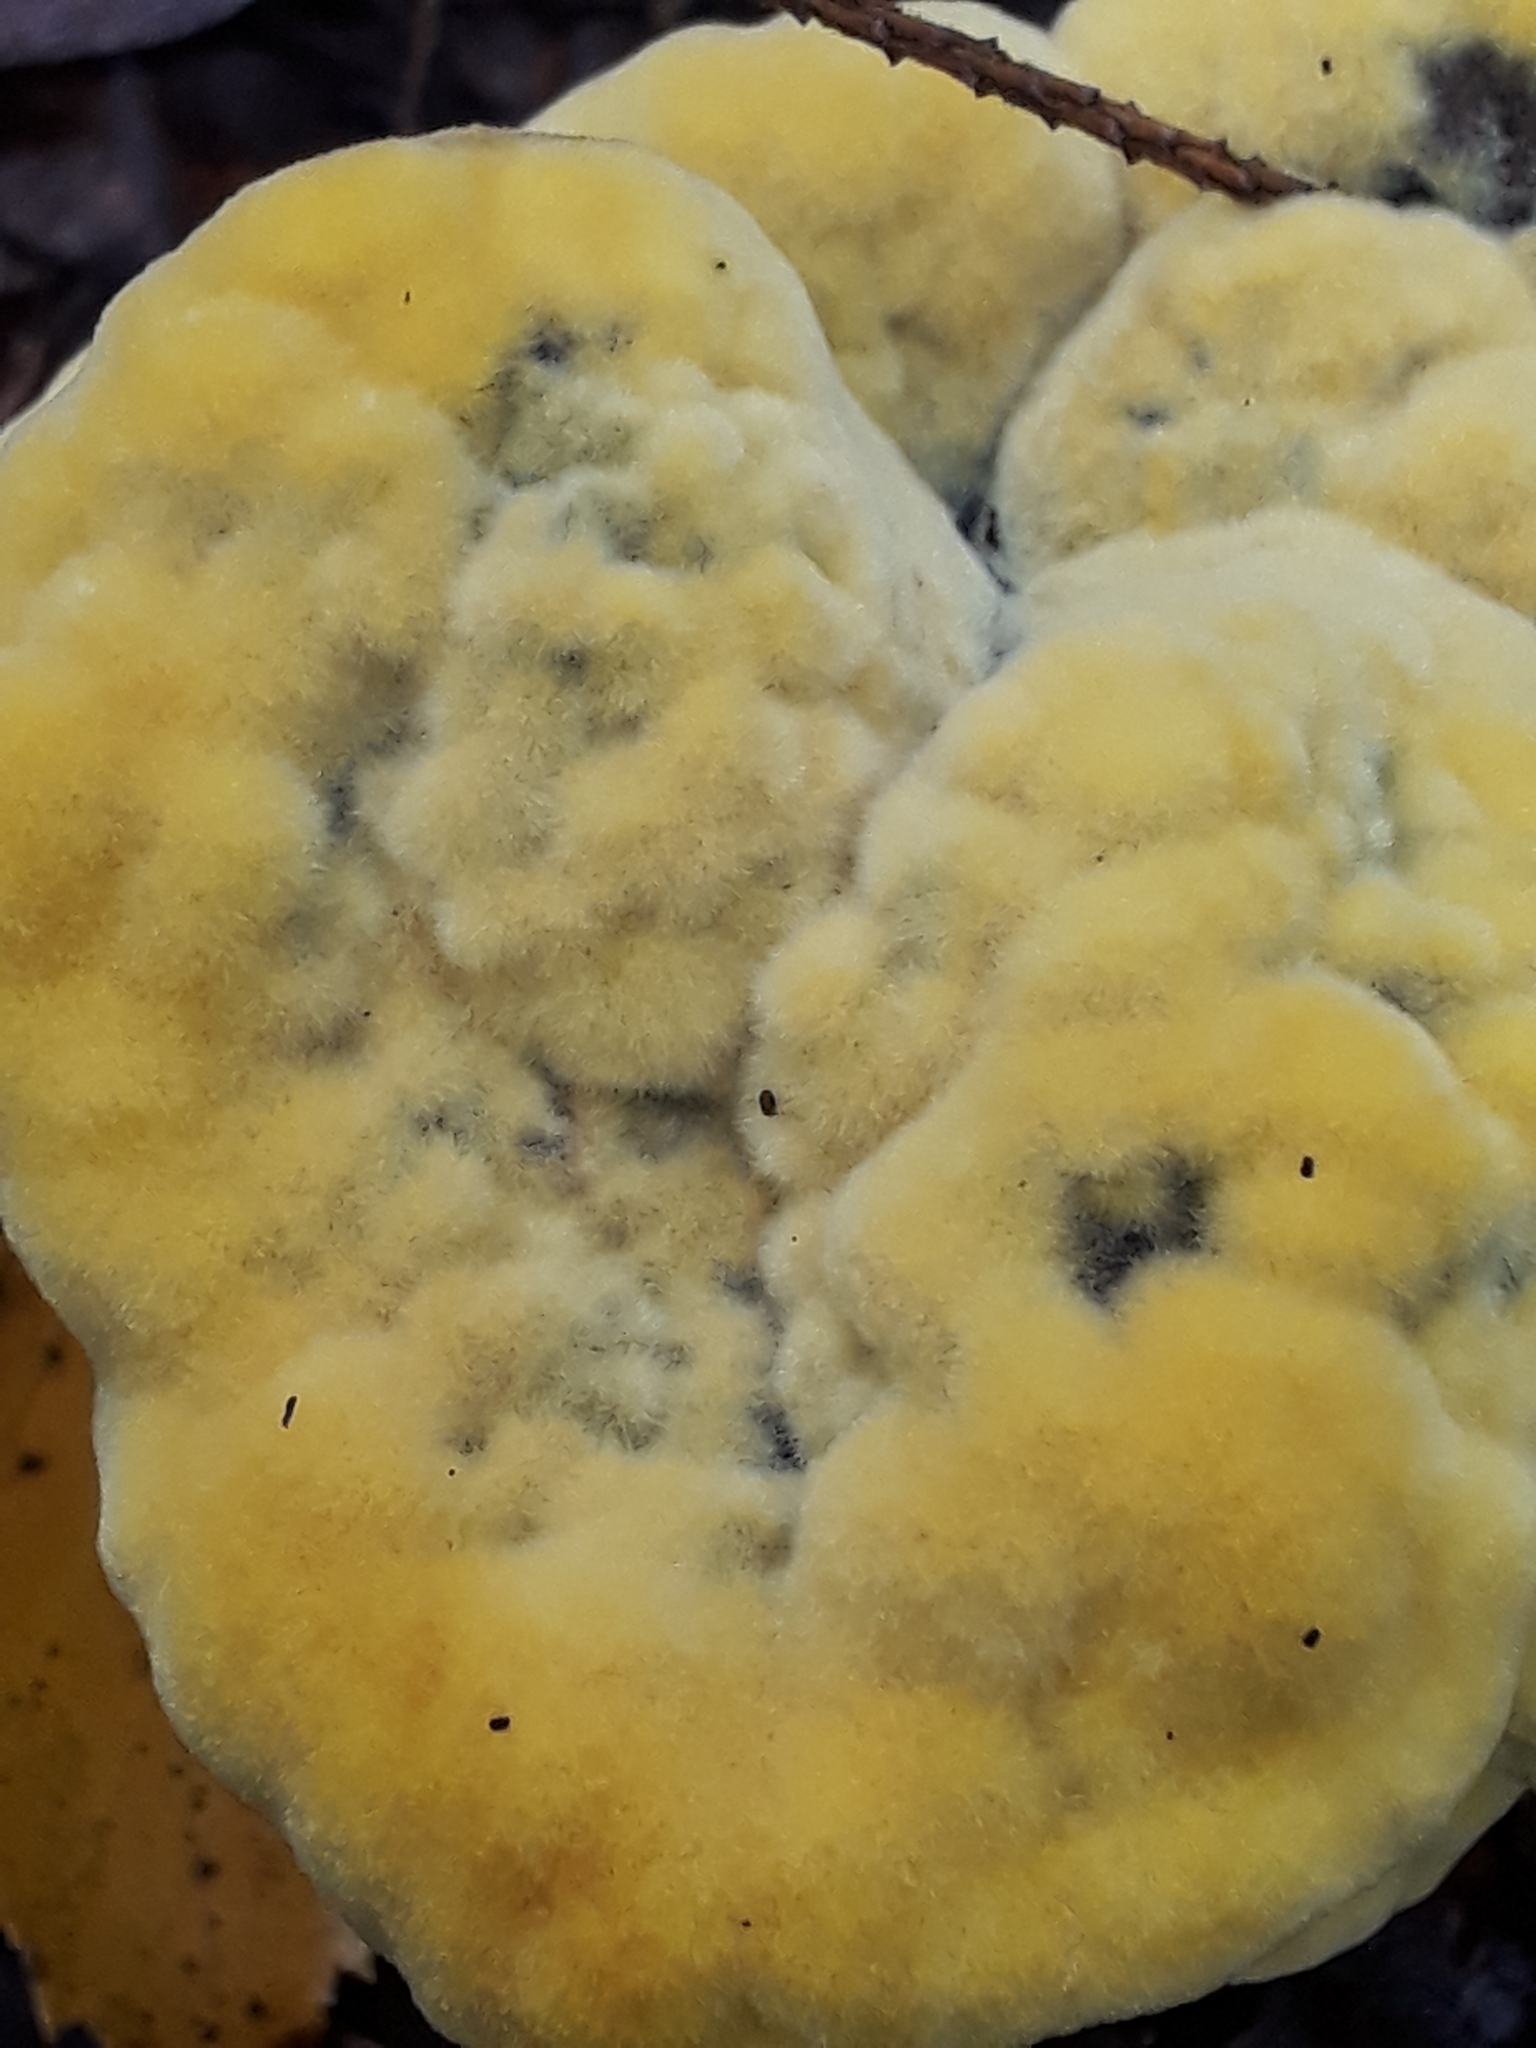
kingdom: Fungi
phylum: Basidiomycota
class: Agaricomycetes
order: Polyporales
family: Laetiporaceae
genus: Phaeolus
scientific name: Phaeolus schweinitzii
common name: Dyer's mazegill
